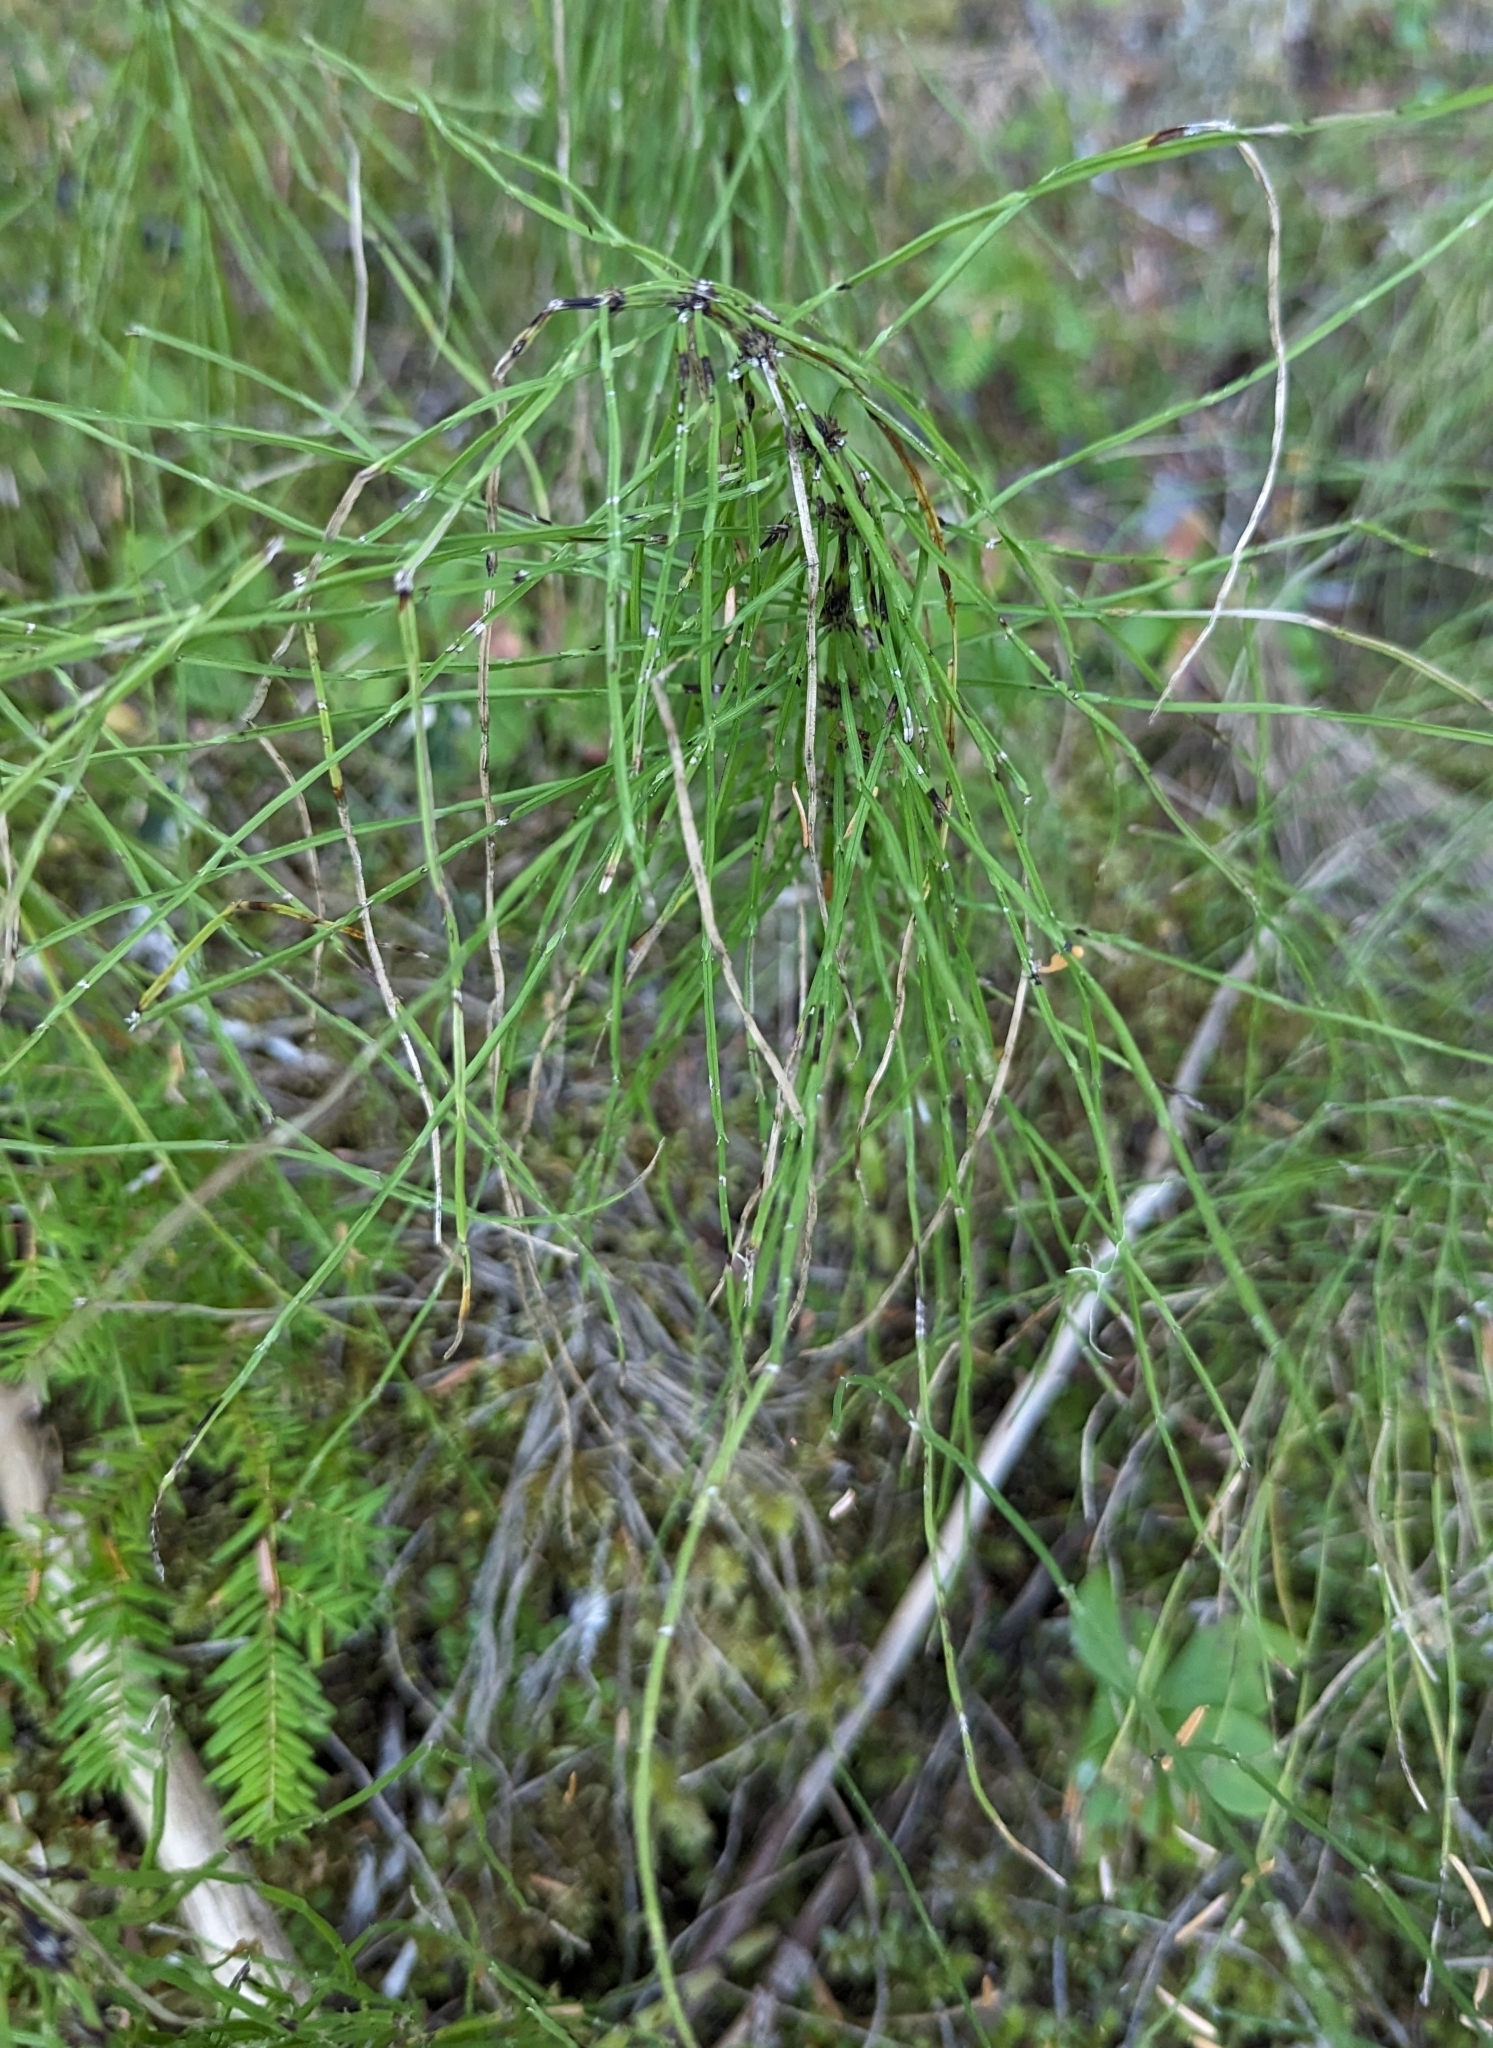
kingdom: Plantae
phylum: Tracheophyta
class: Polypodiopsida
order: Equisetales
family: Equisetaceae
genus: Equisetum
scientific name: Equisetum arvense
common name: Field horsetail
